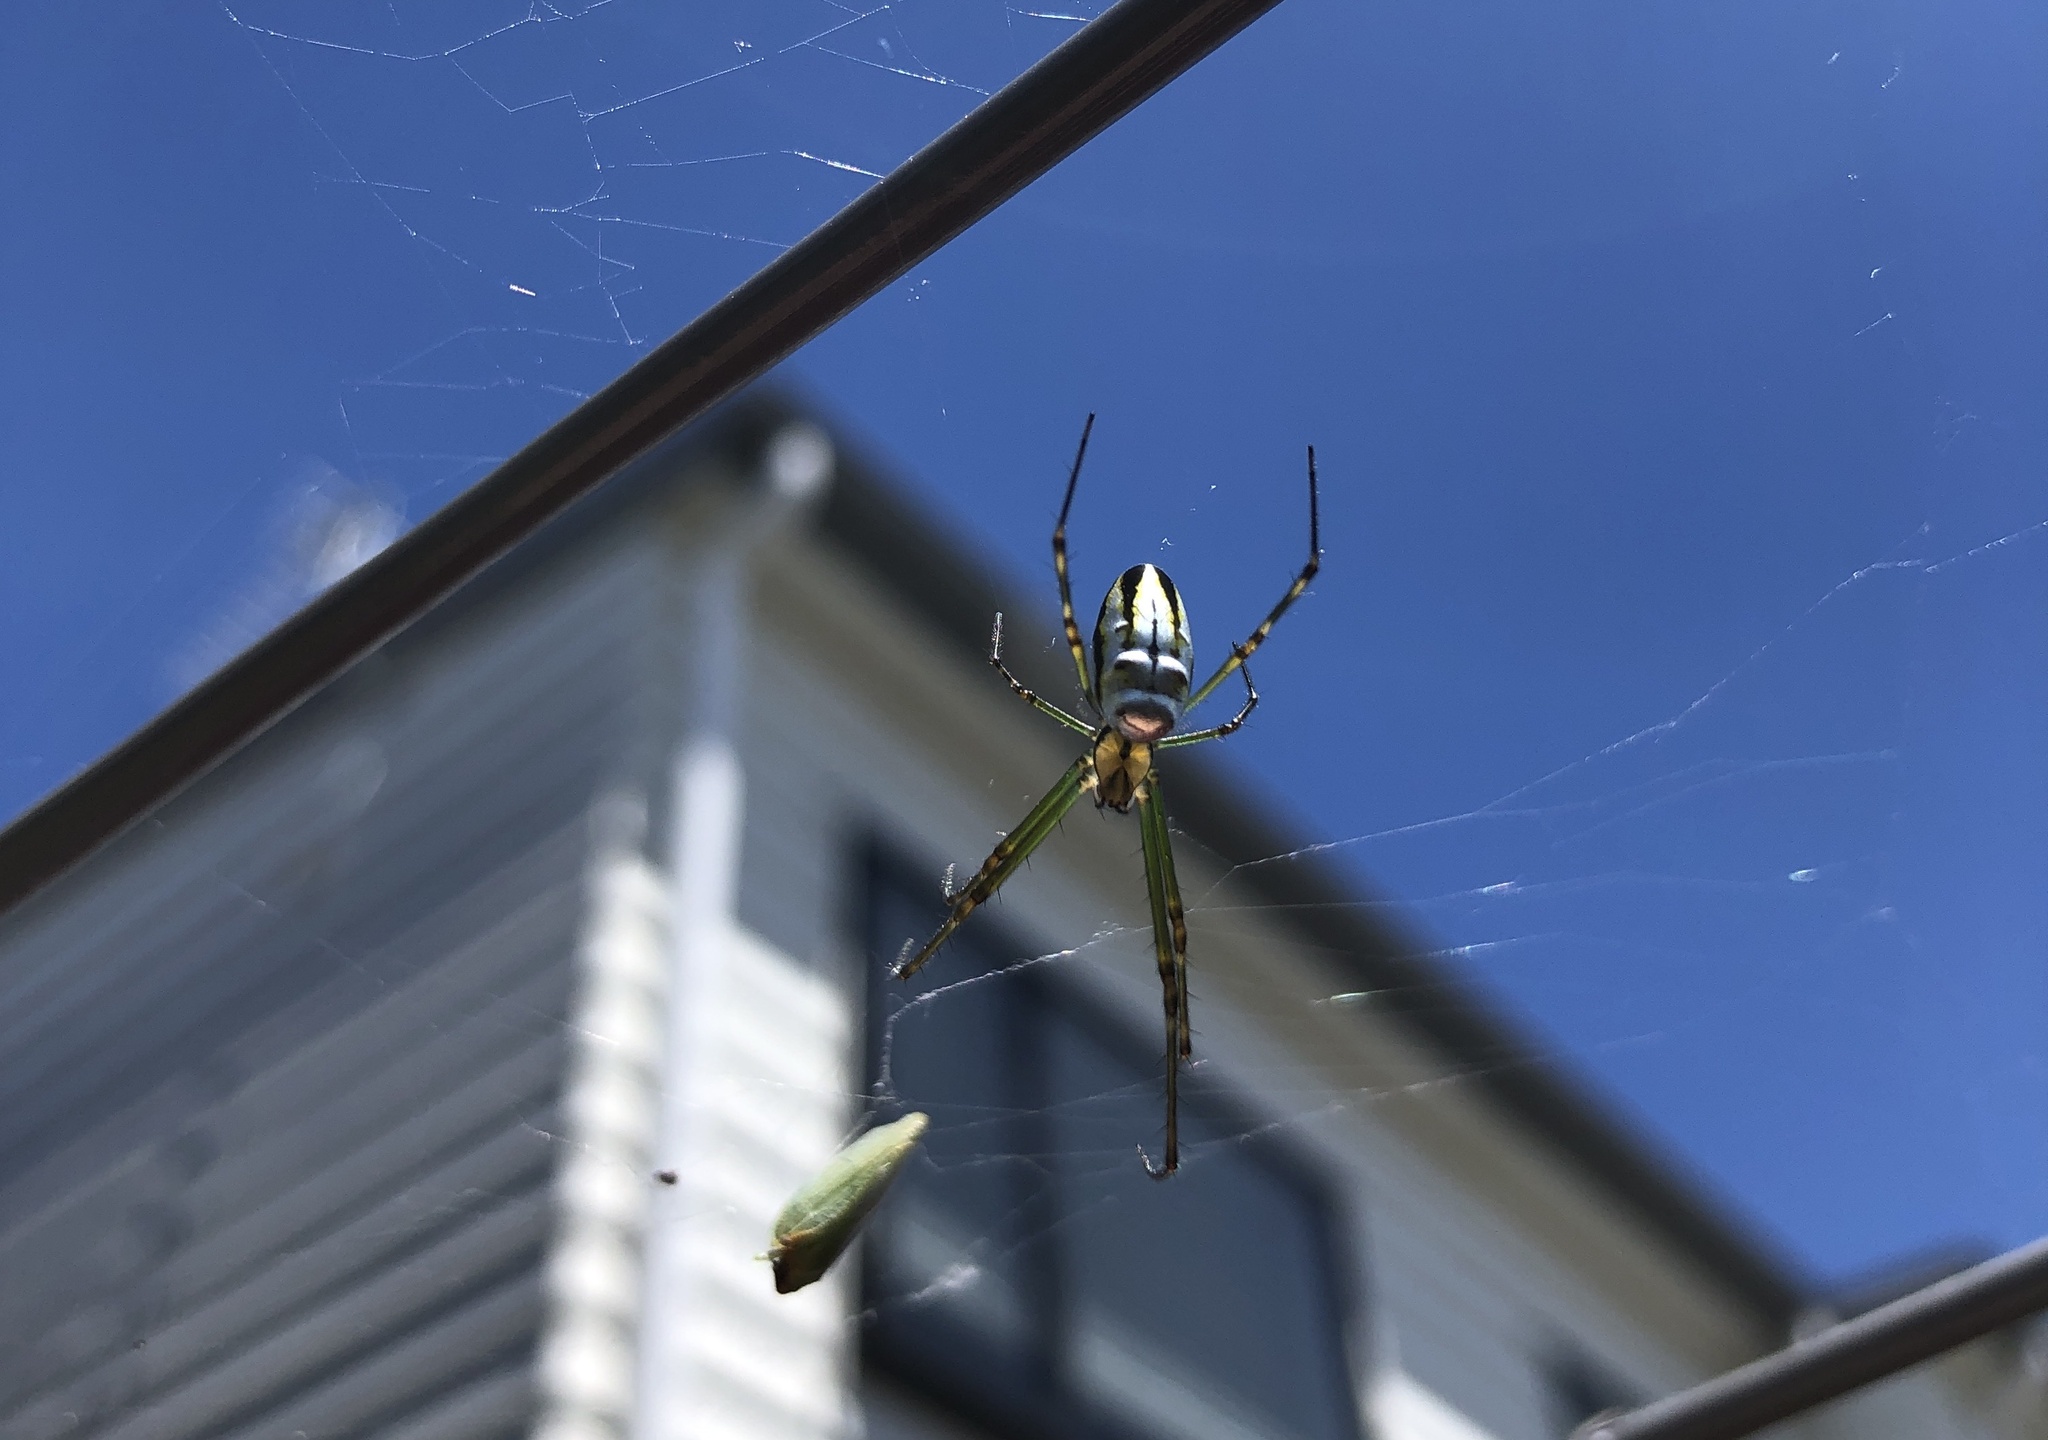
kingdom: Animalia
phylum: Arthropoda
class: Arachnida
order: Araneae
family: Tetragnathidae
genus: Leucauge
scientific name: Leucauge dromedaria
